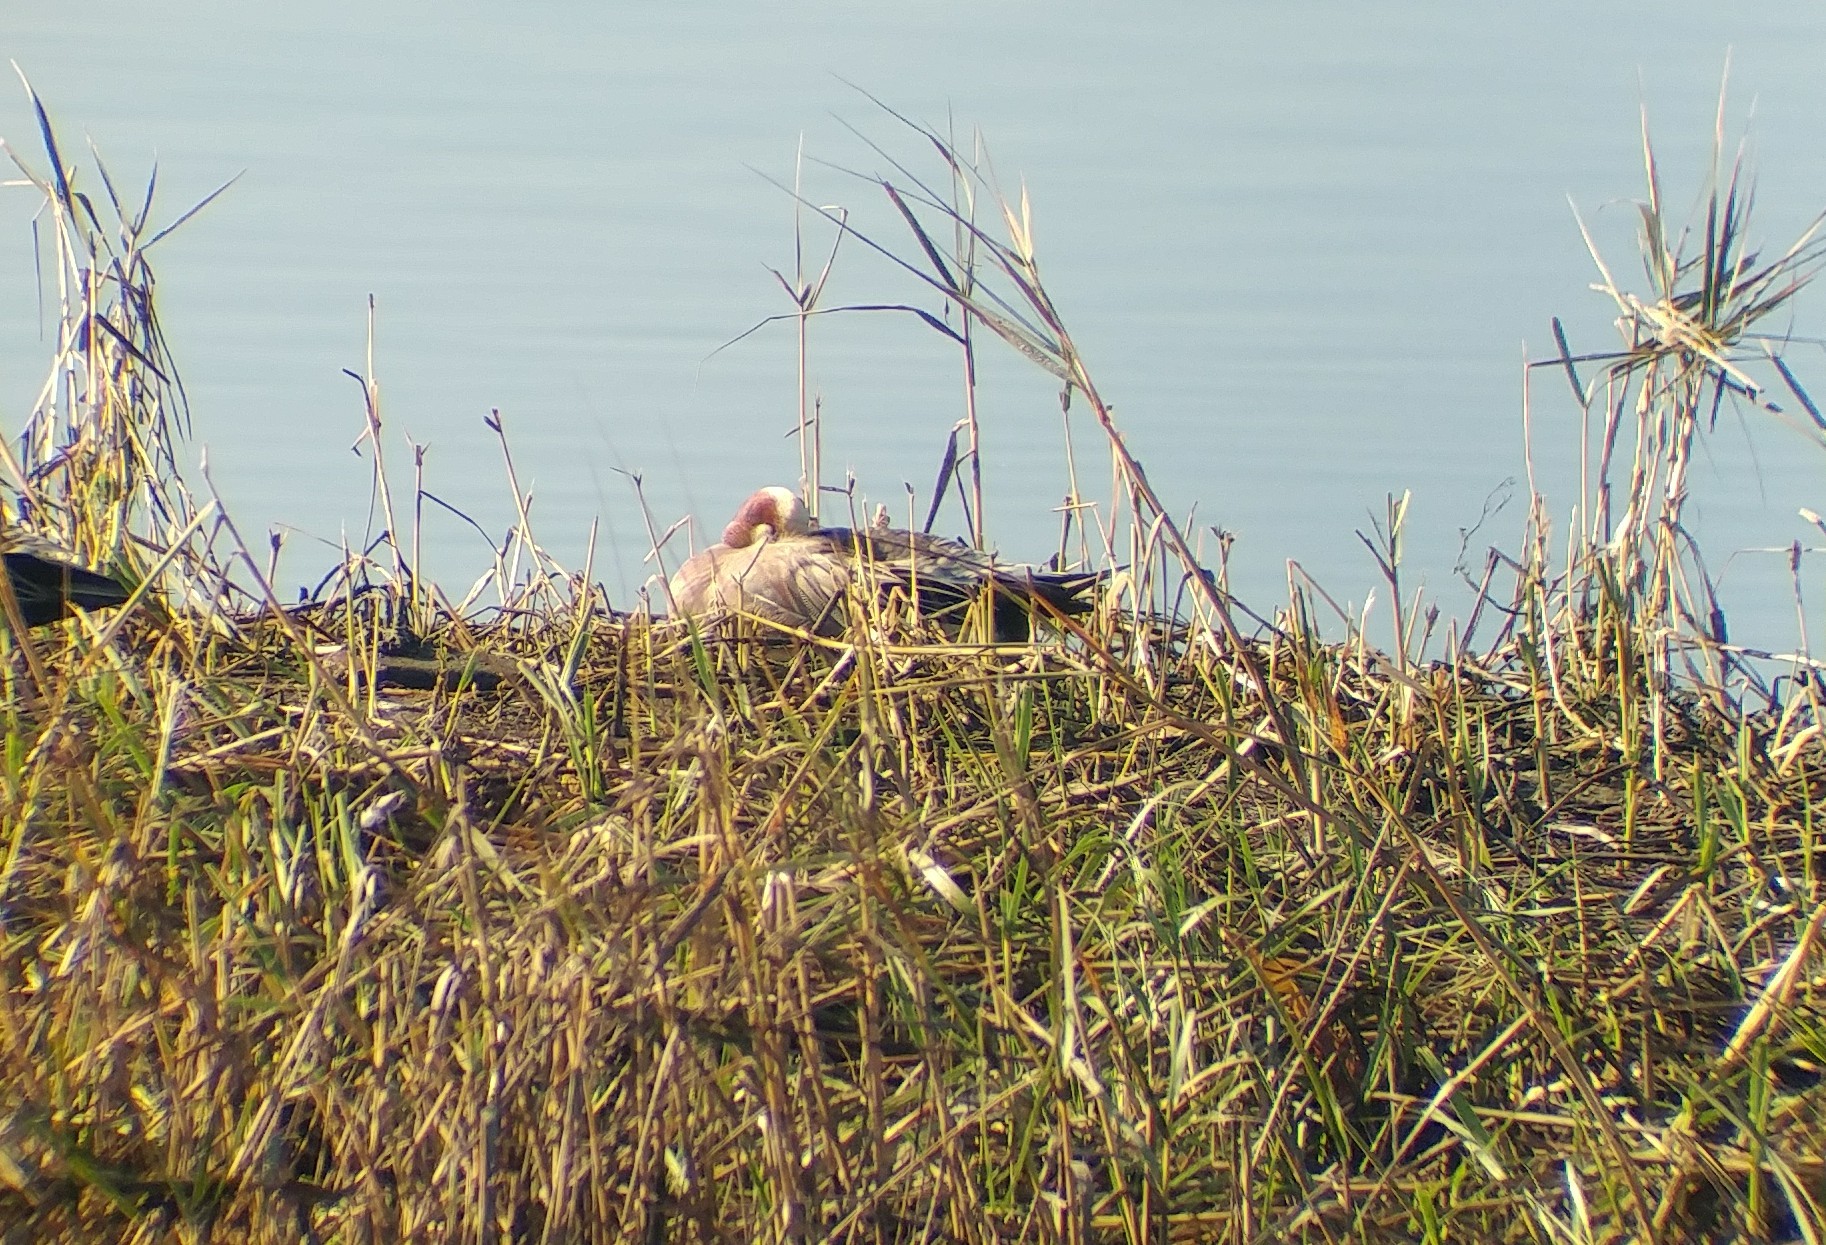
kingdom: Animalia
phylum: Chordata
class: Aves
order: Anseriformes
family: Anatidae
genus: Mareca
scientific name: Mareca
